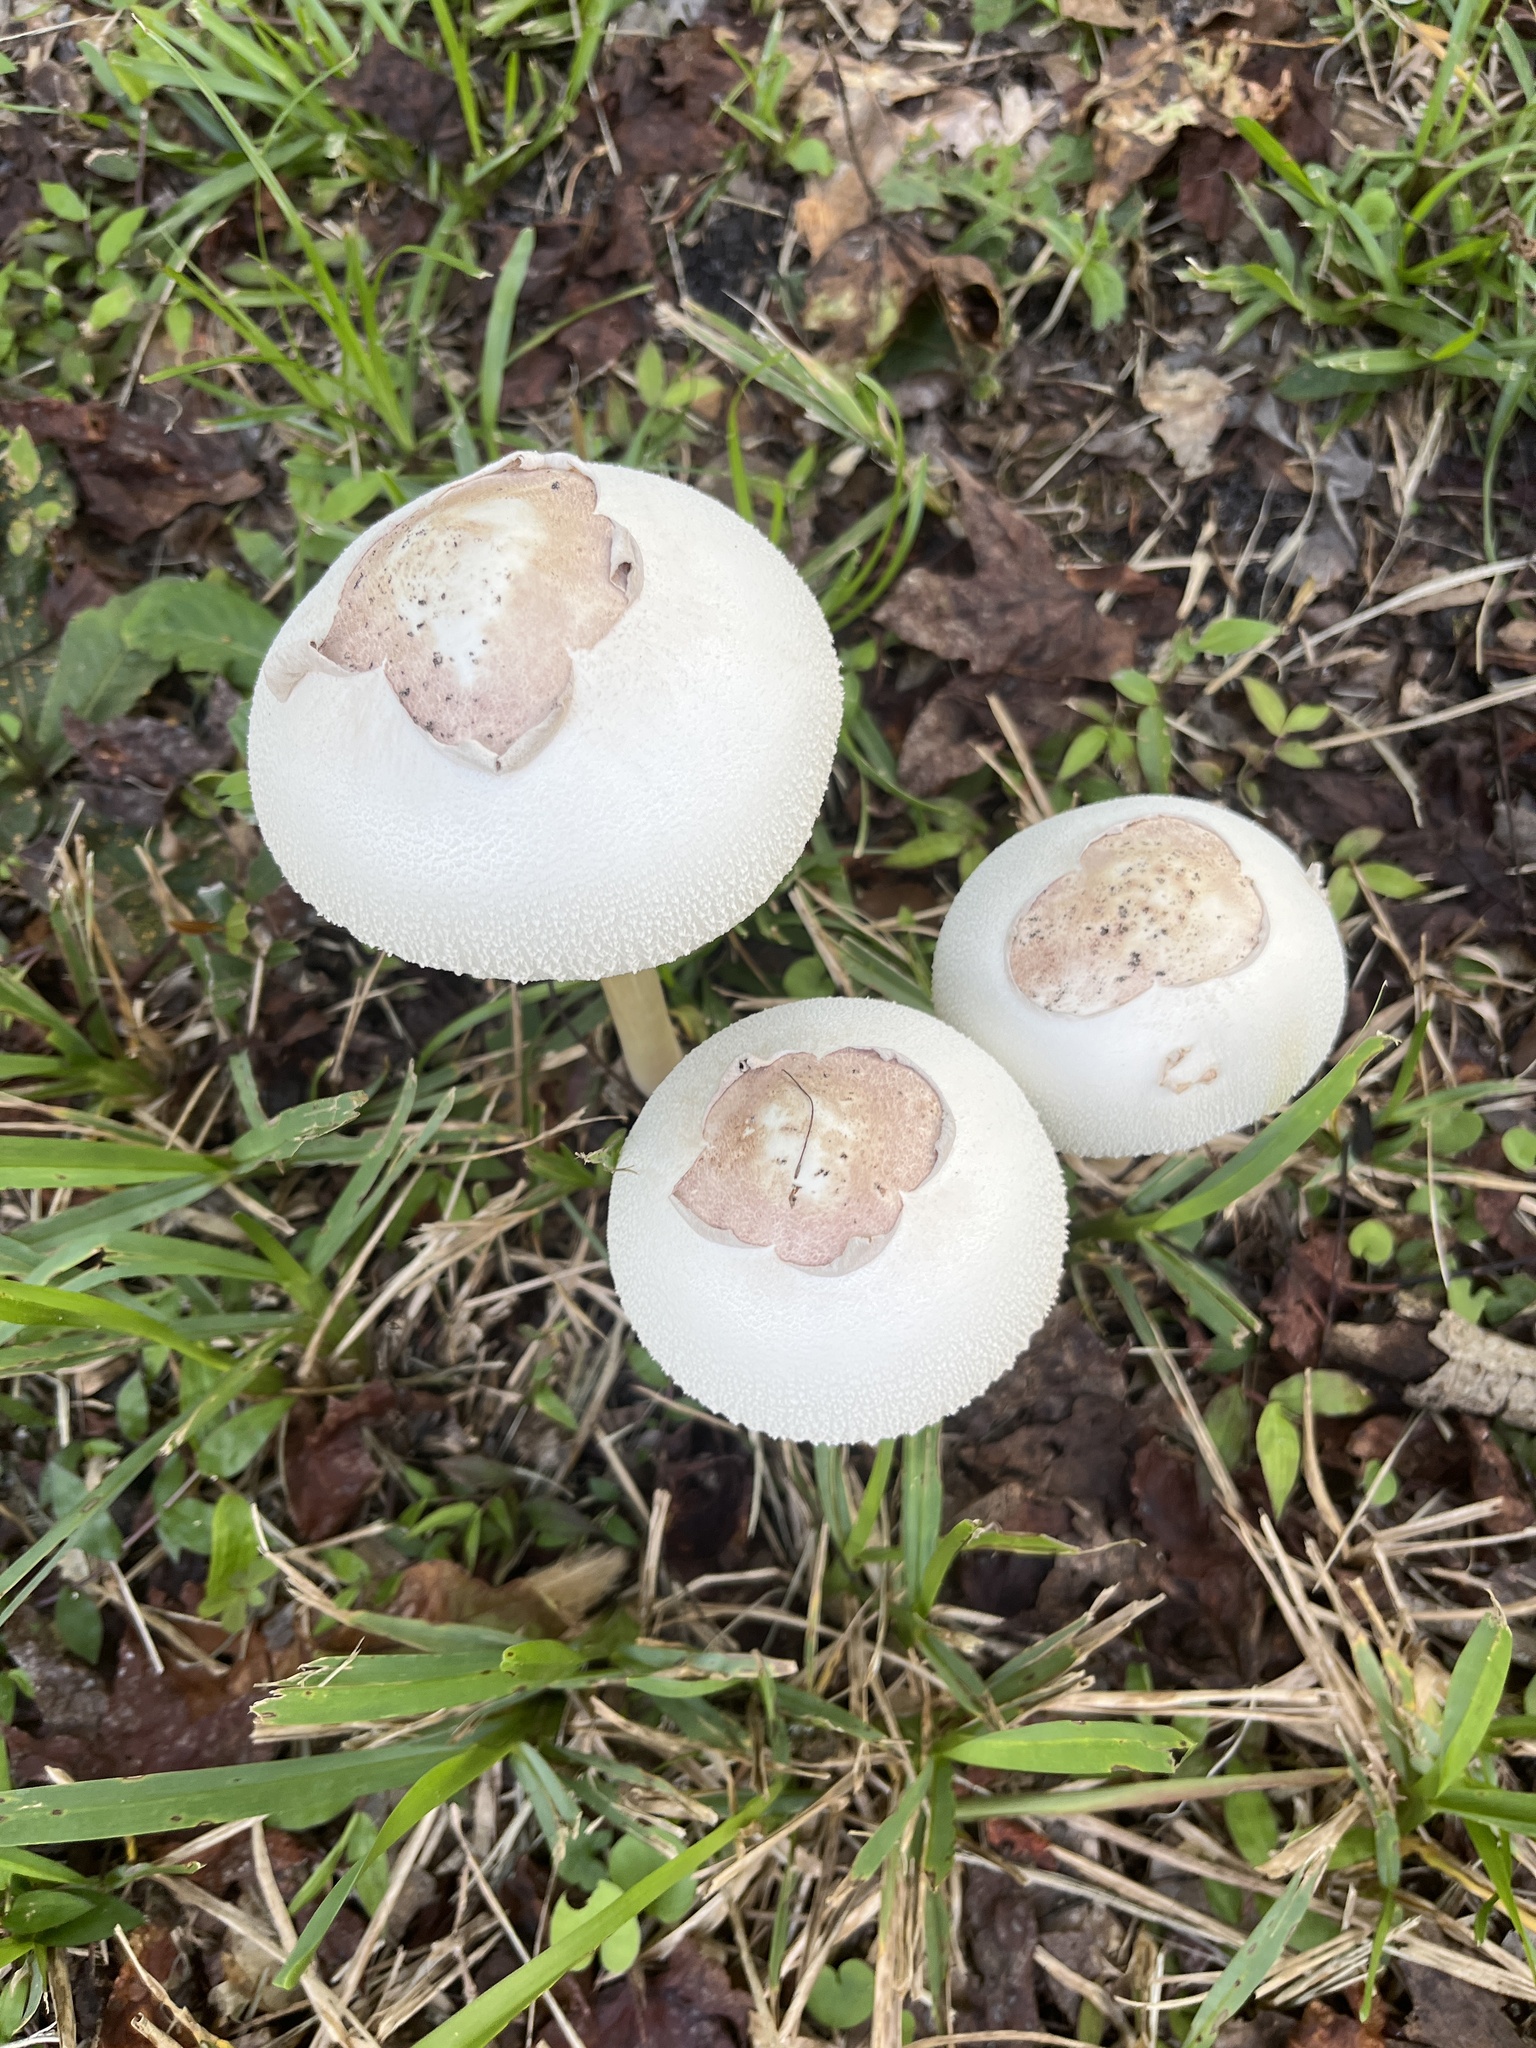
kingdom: Fungi
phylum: Basidiomycota
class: Agaricomycetes
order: Agaricales
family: Agaricaceae
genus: Chlorophyllum
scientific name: Chlorophyllum molybdites
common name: False parasol
